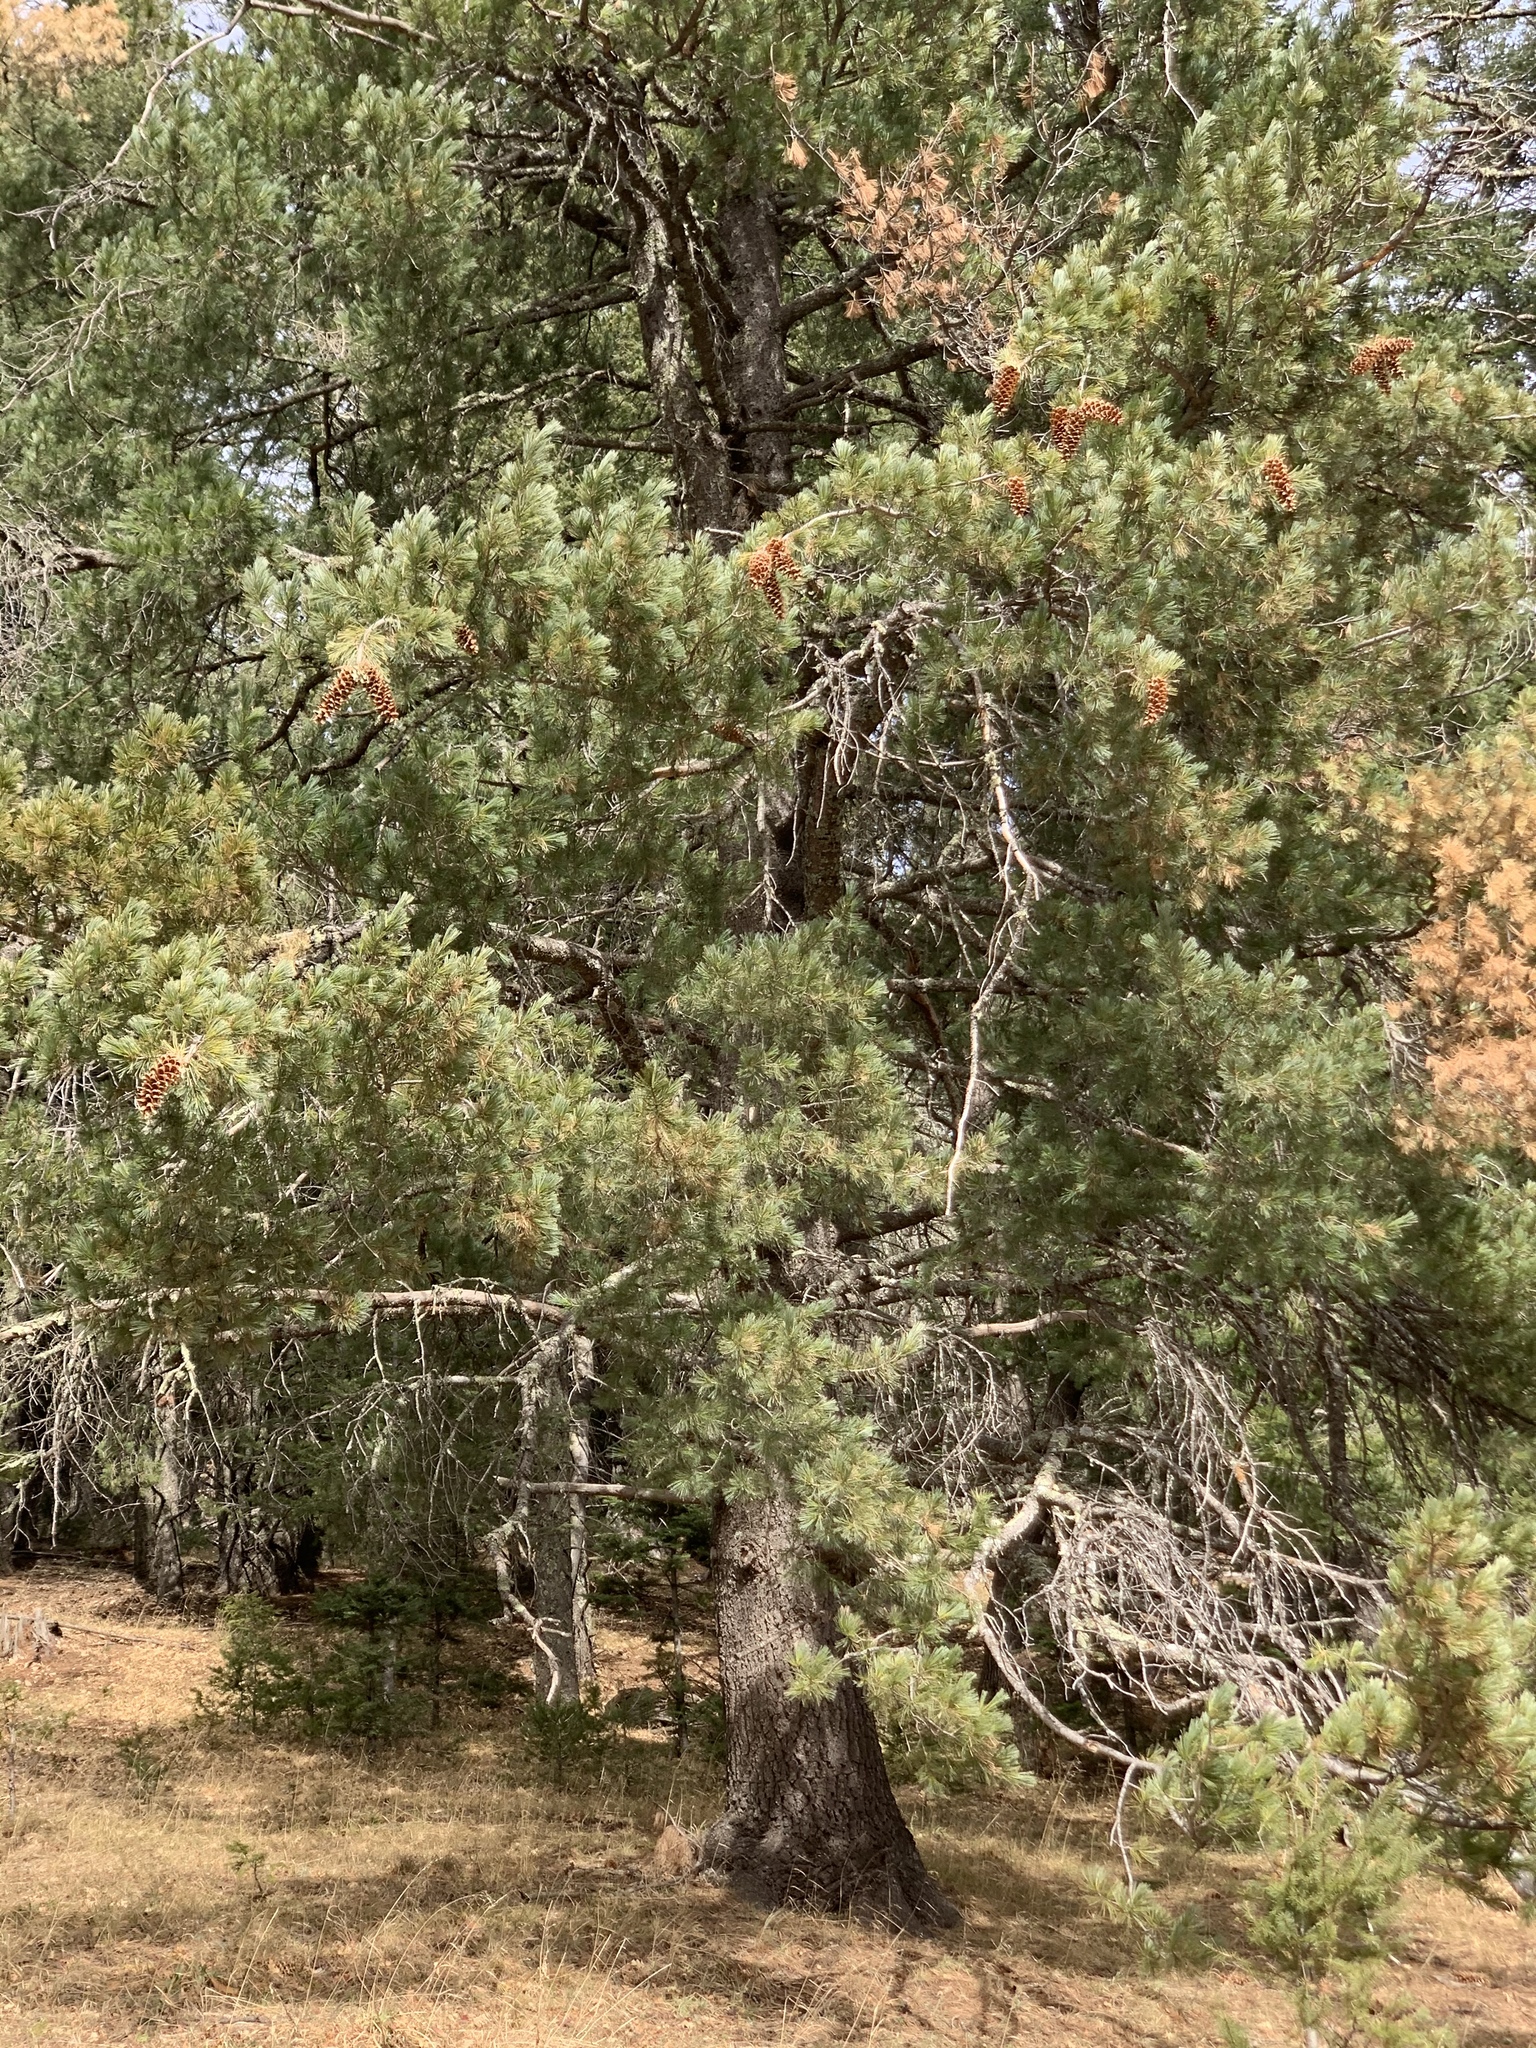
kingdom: Plantae
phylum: Tracheophyta
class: Pinopsida
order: Pinales
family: Pinaceae
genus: Pinus
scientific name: Pinus strobiformis
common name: Southwestern white pine
